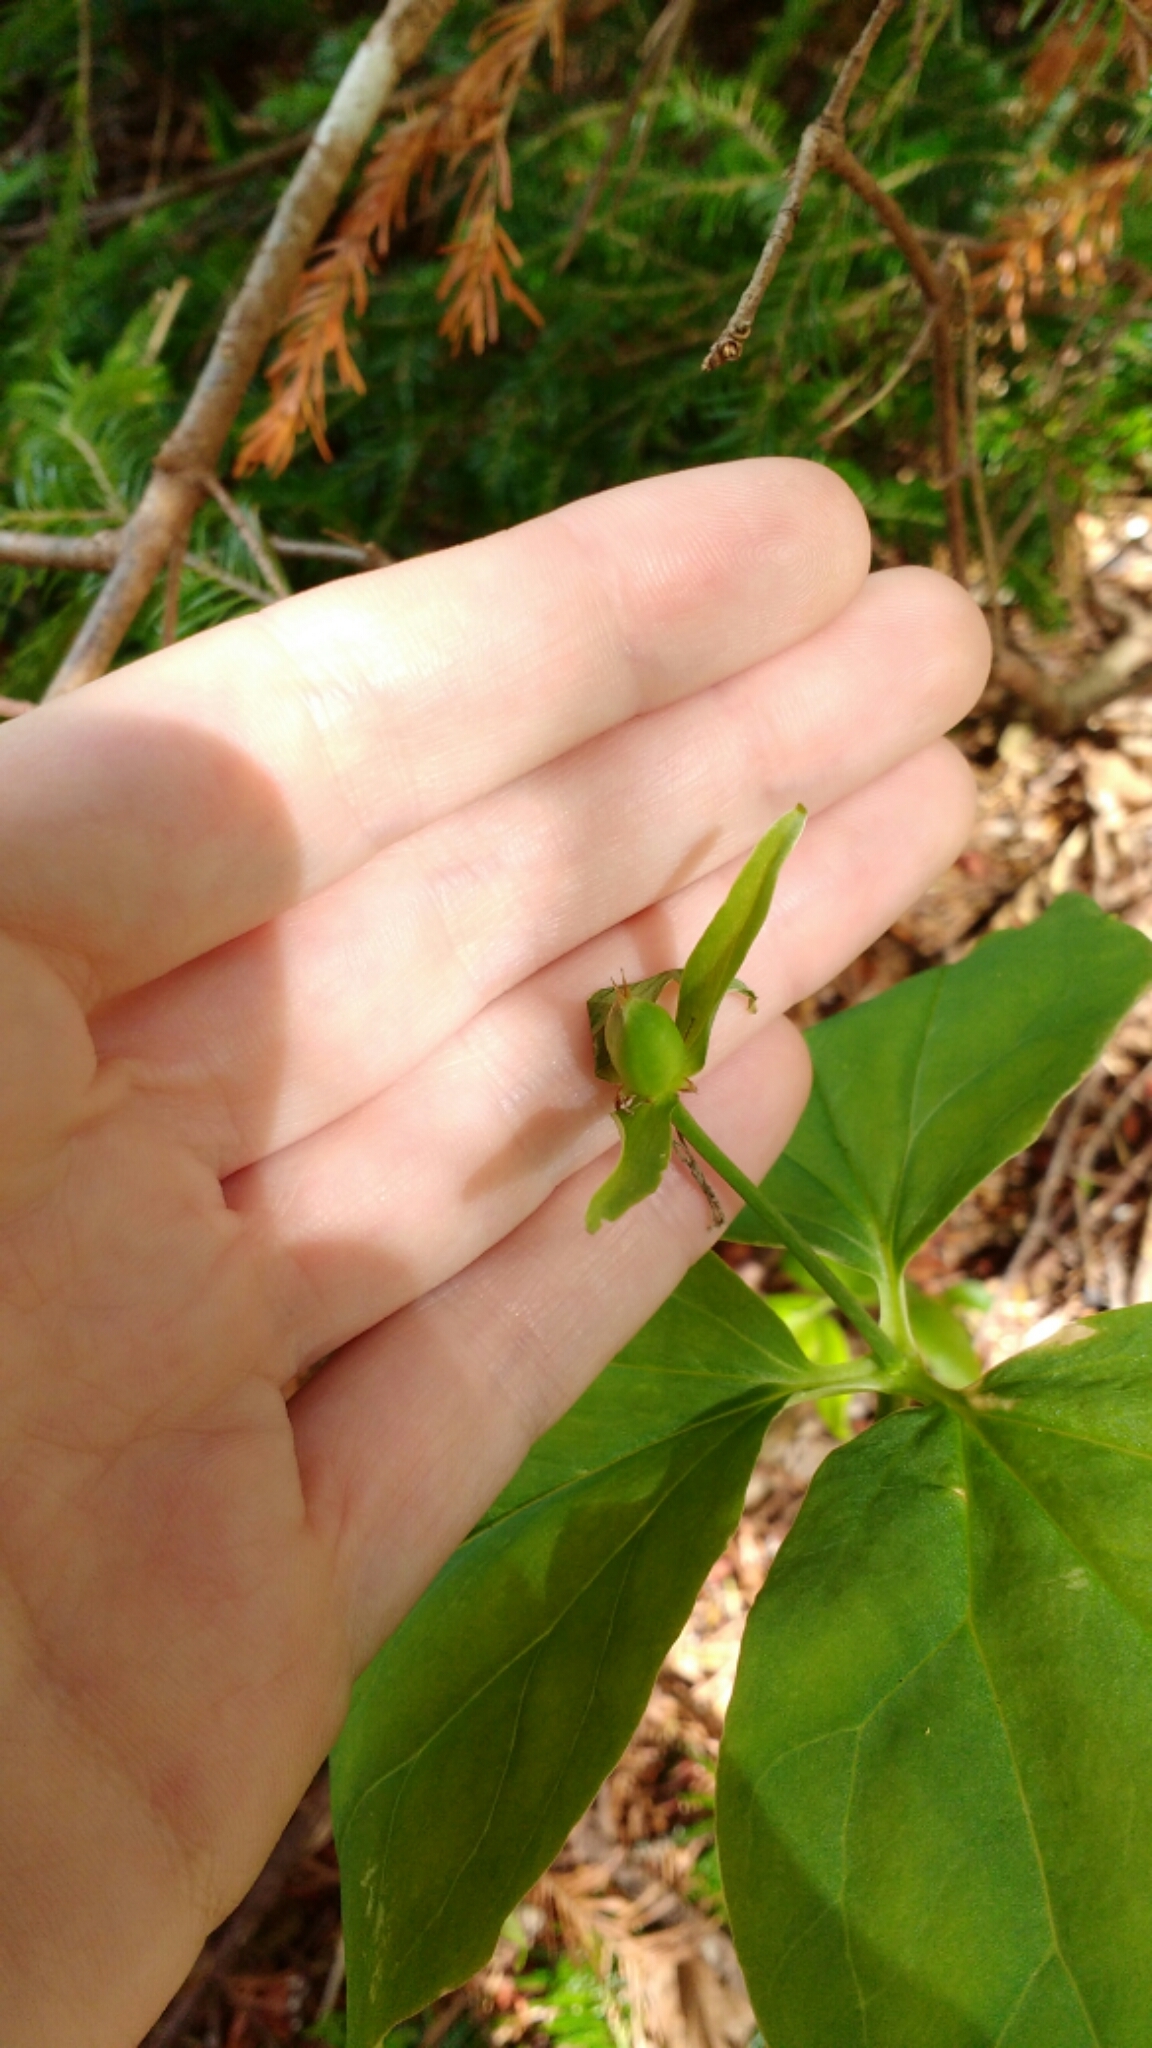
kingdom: Plantae
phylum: Tracheophyta
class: Liliopsida
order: Liliales
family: Melanthiaceae
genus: Trillium
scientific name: Trillium undulatum
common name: Paint trillium
